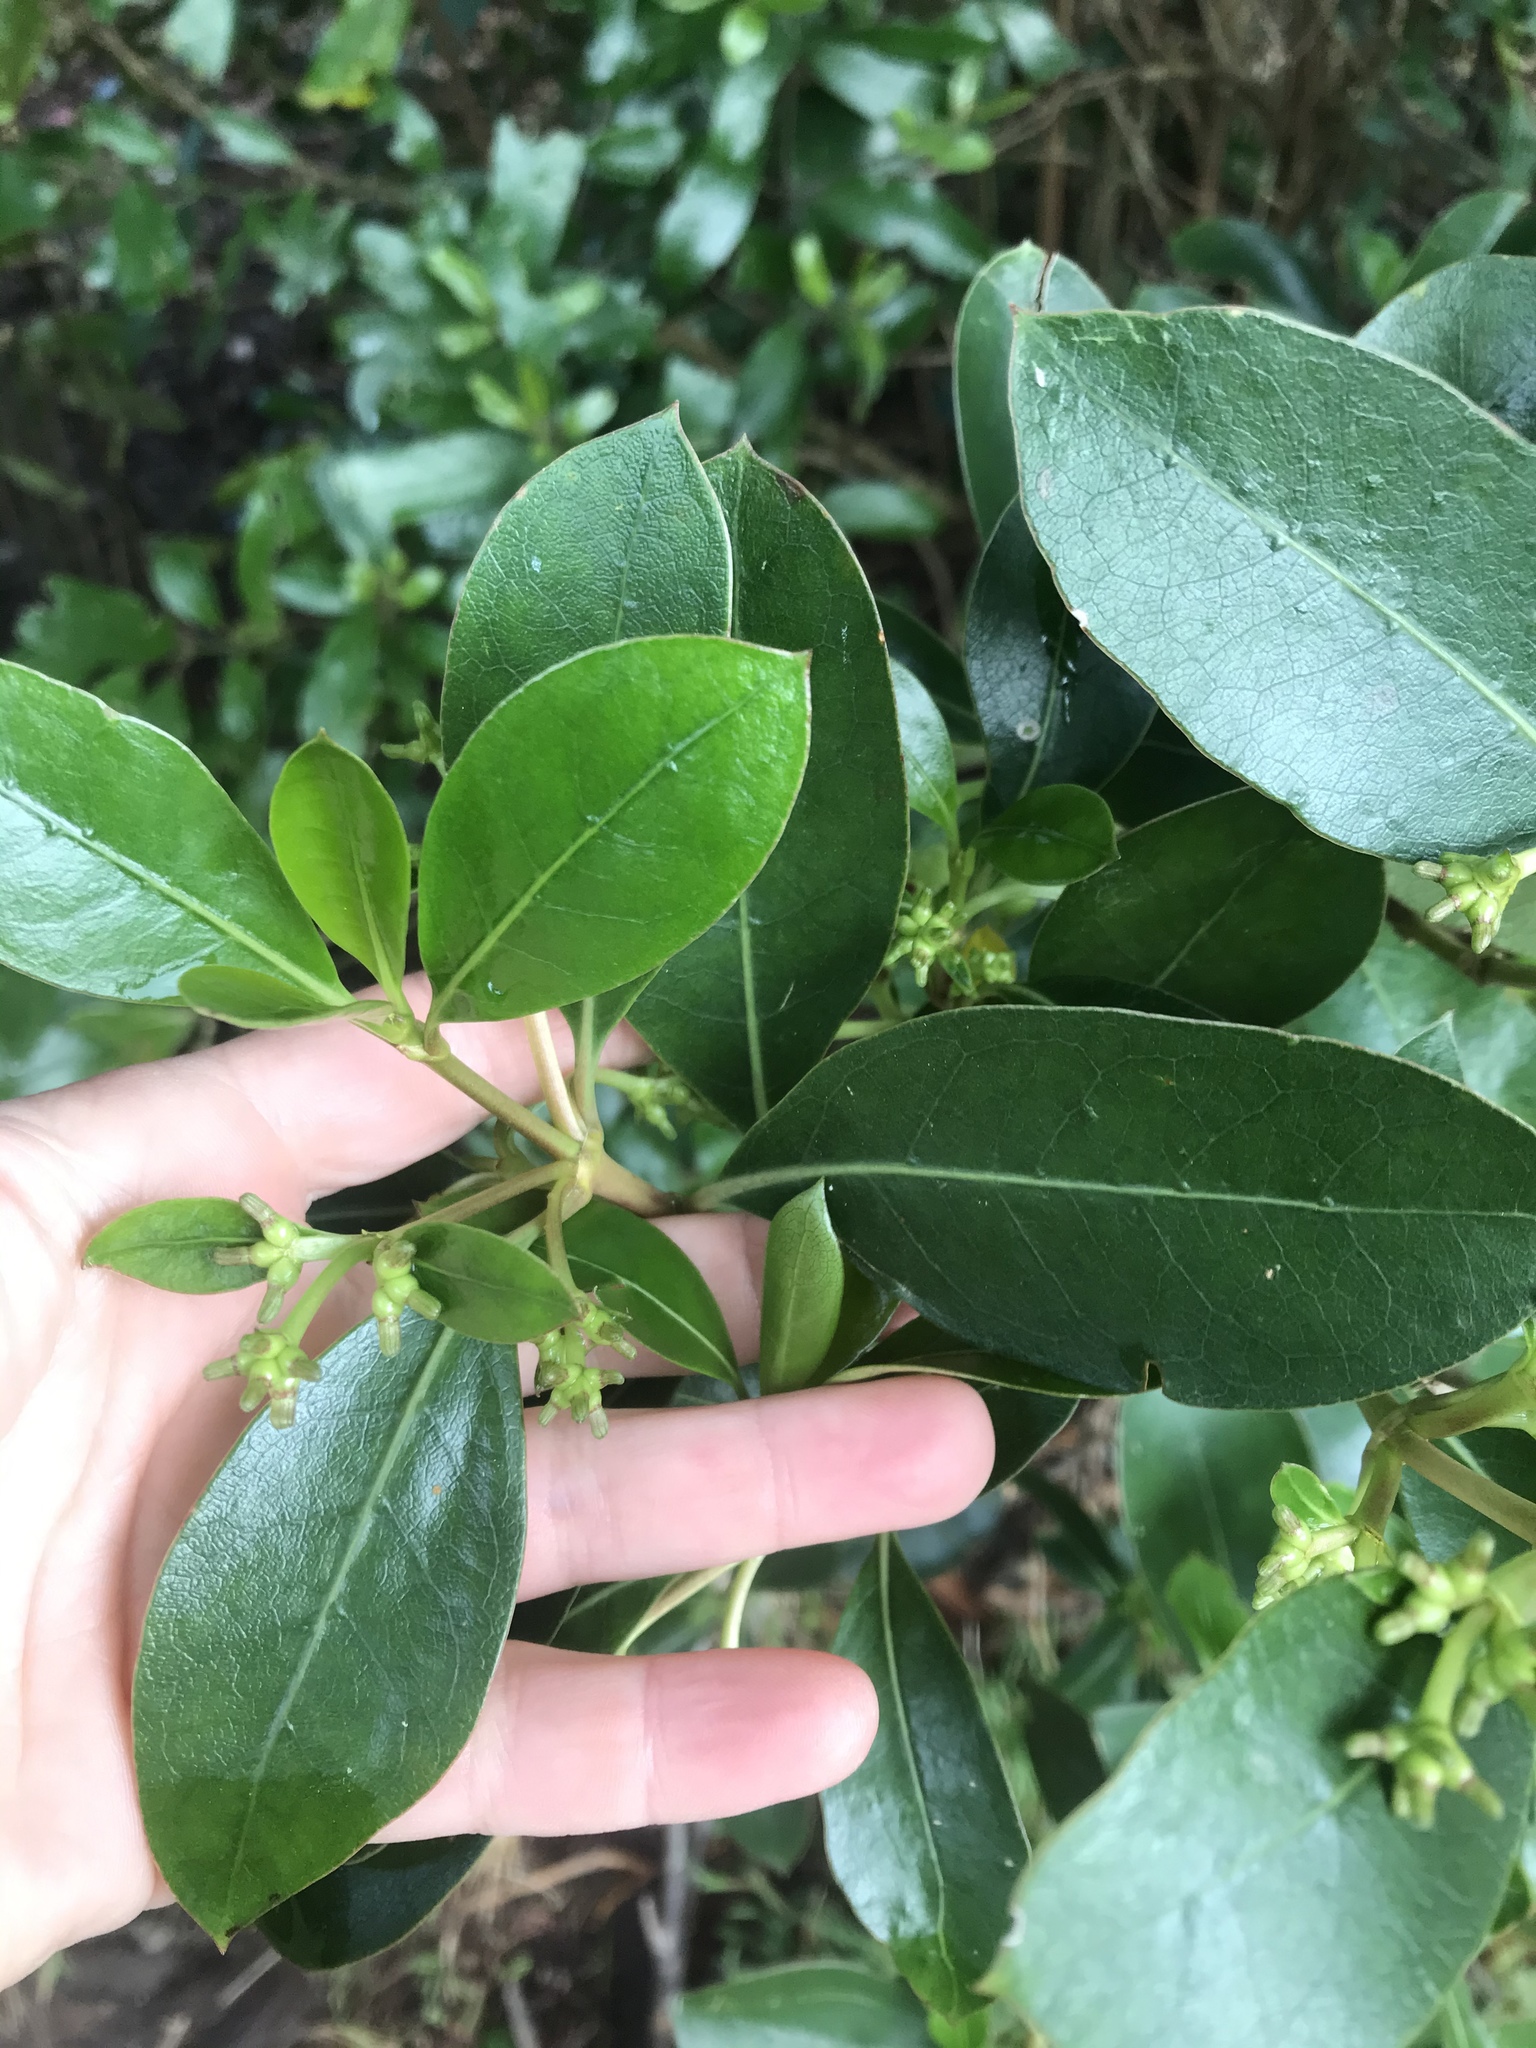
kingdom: Plantae
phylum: Tracheophyta
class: Magnoliopsida
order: Gentianales
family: Rubiaceae
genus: Coprosma
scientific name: Coprosma lucida
